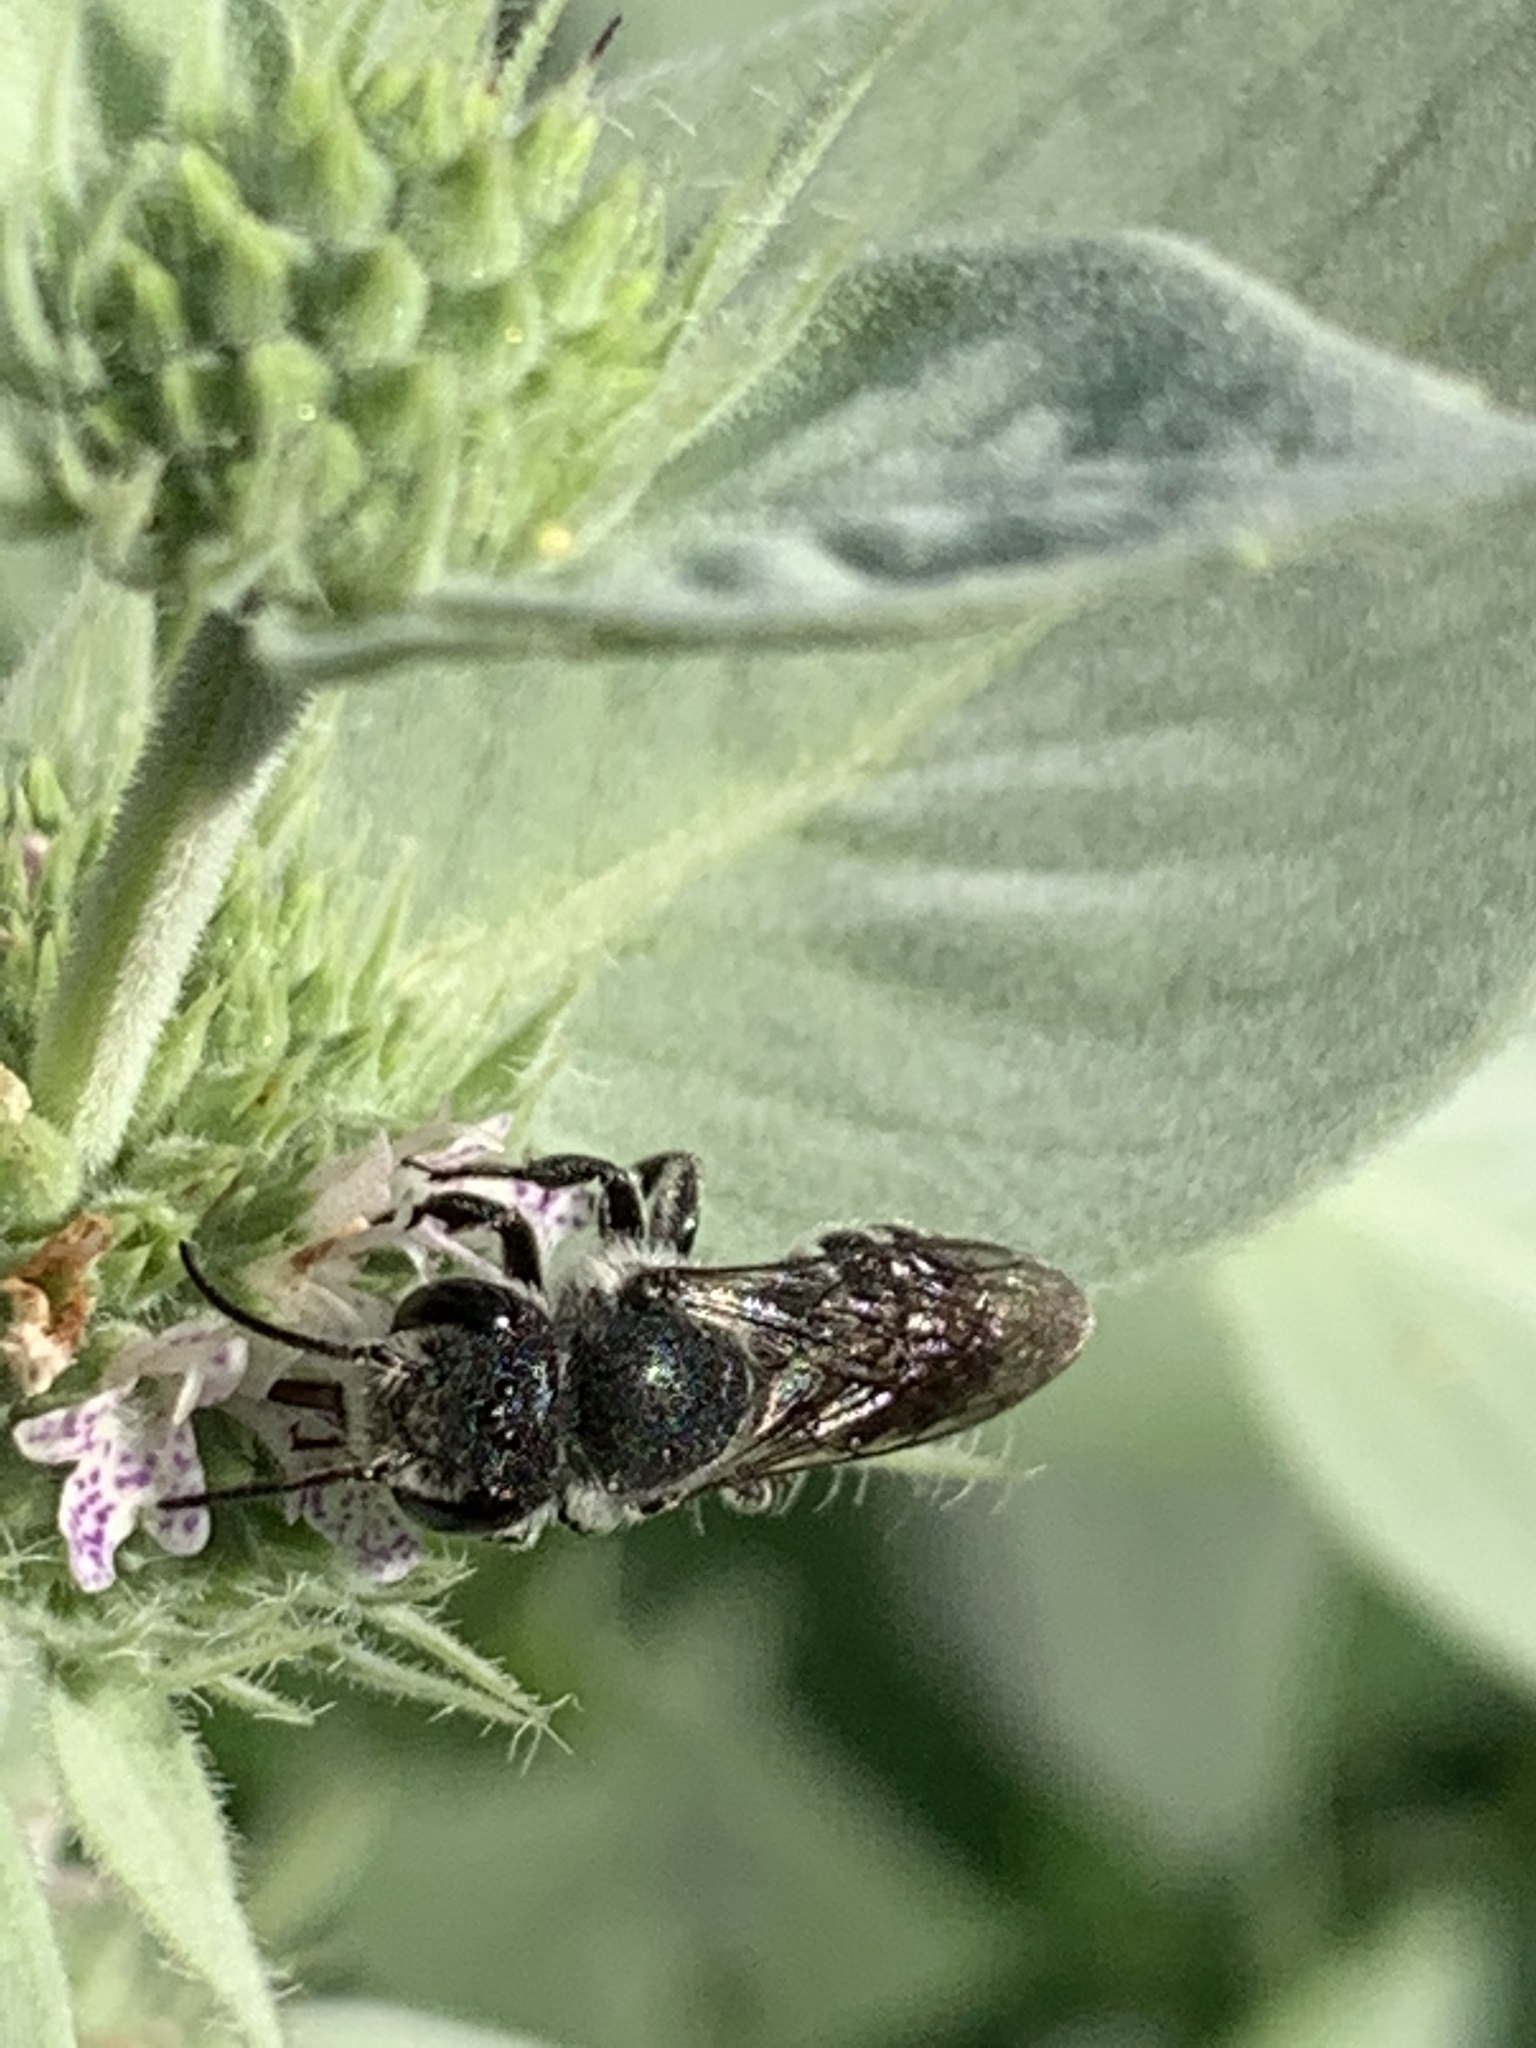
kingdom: Animalia
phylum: Arthropoda
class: Insecta
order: Hymenoptera
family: Megachilidae
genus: Megachile
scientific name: Megachile campanulae
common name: Bellflower resin bee
